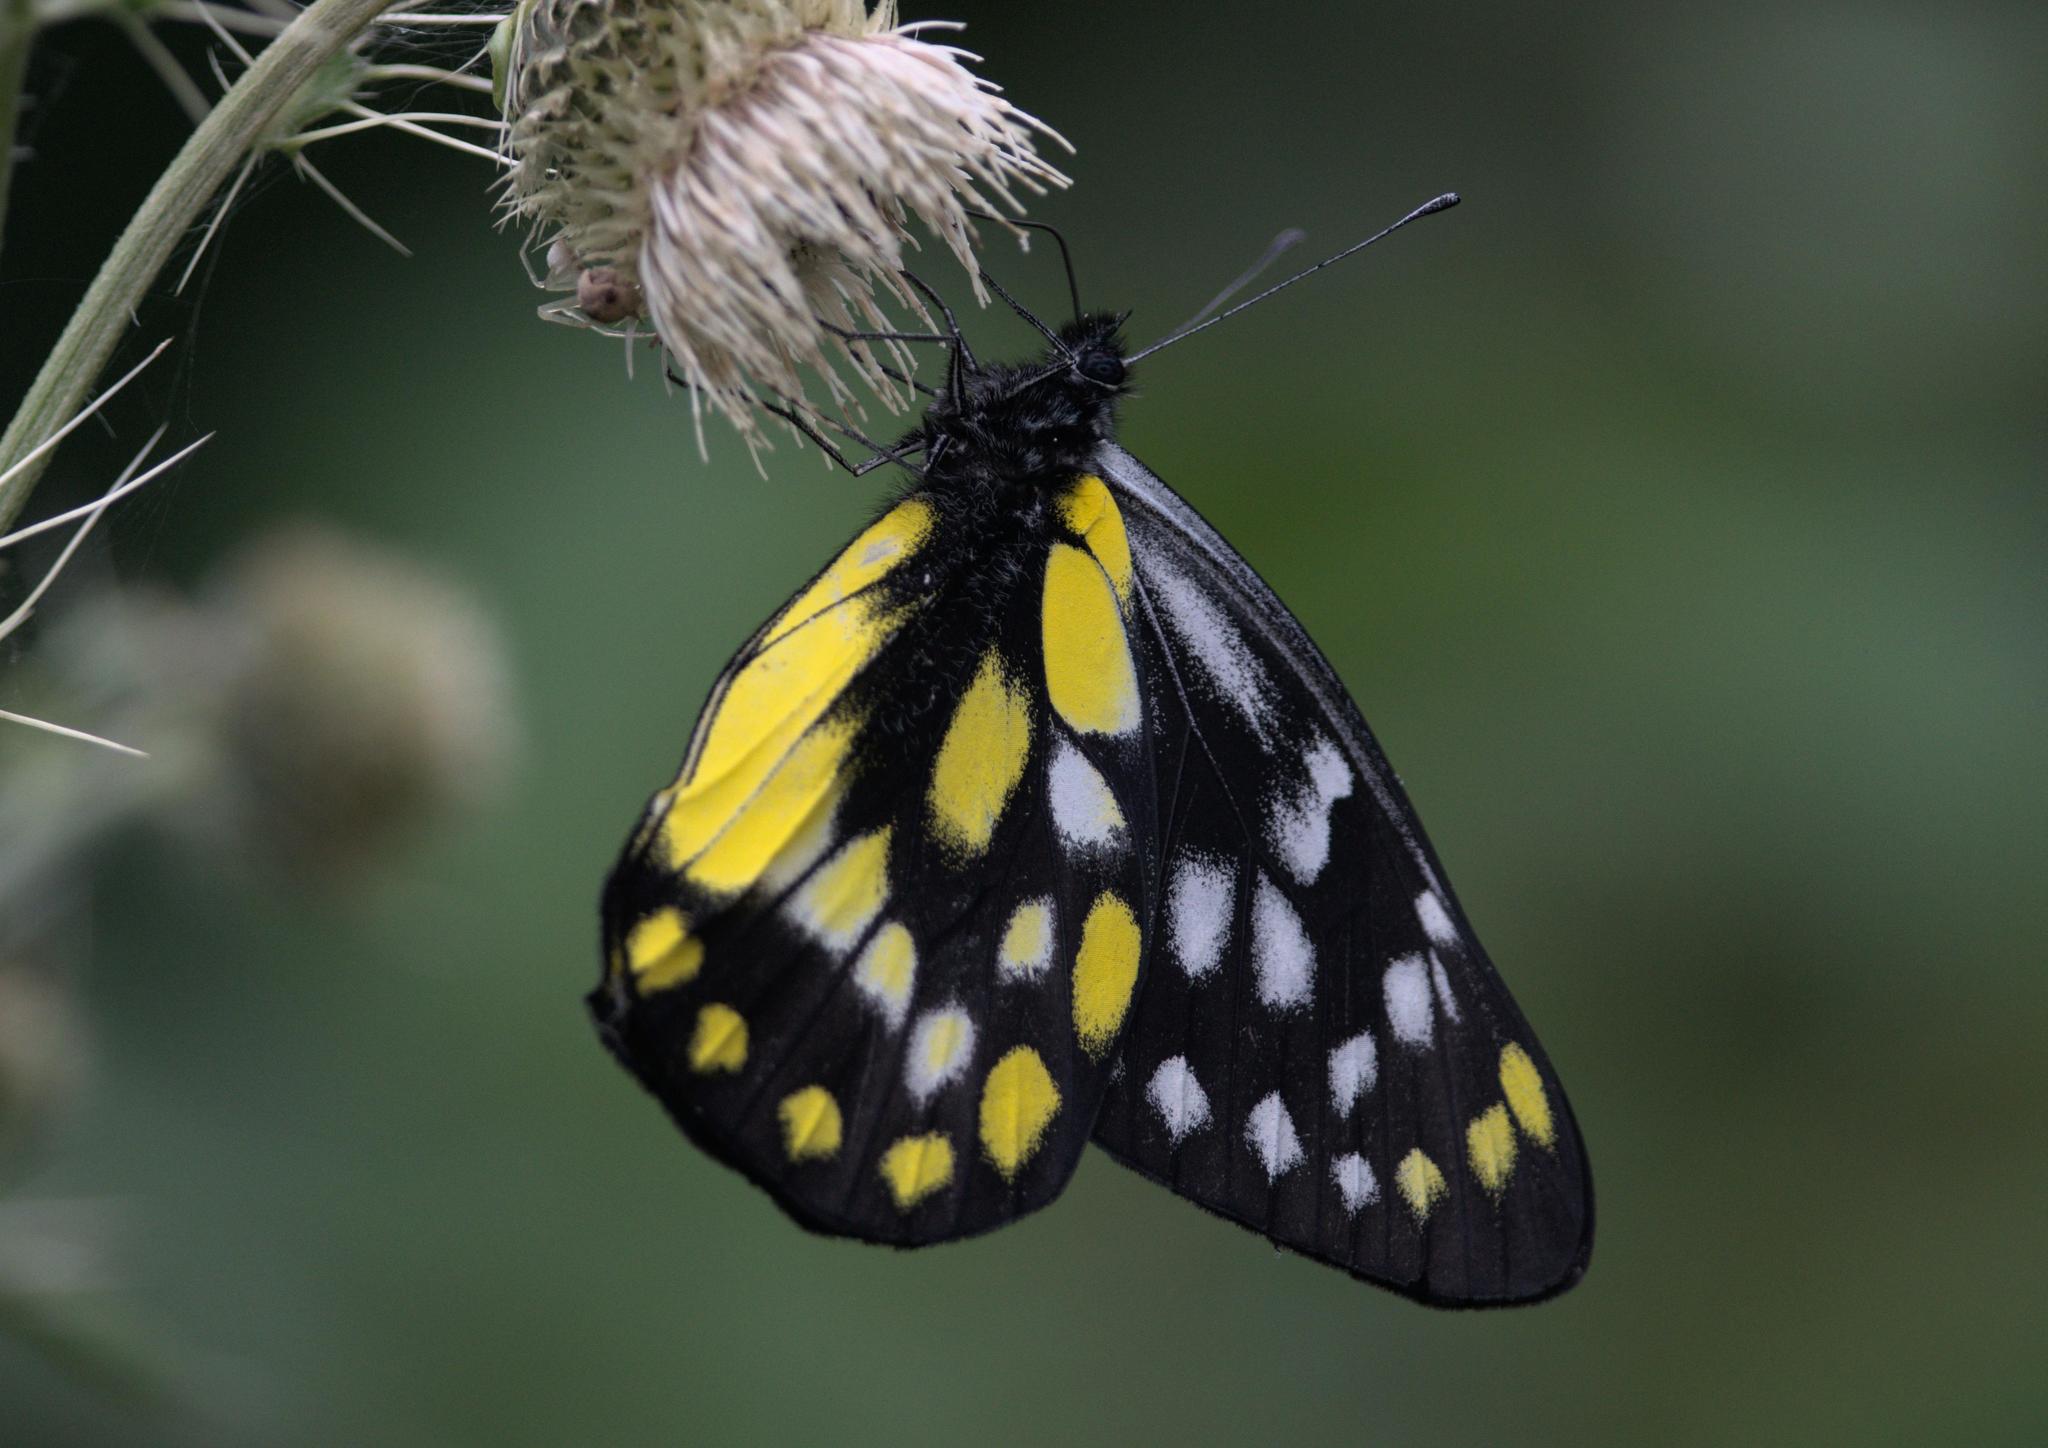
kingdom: Animalia
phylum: Arthropoda
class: Insecta
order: Lepidoptera
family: Pieridae
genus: Delias
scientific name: Delias belladonna
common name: Hill jezebel
